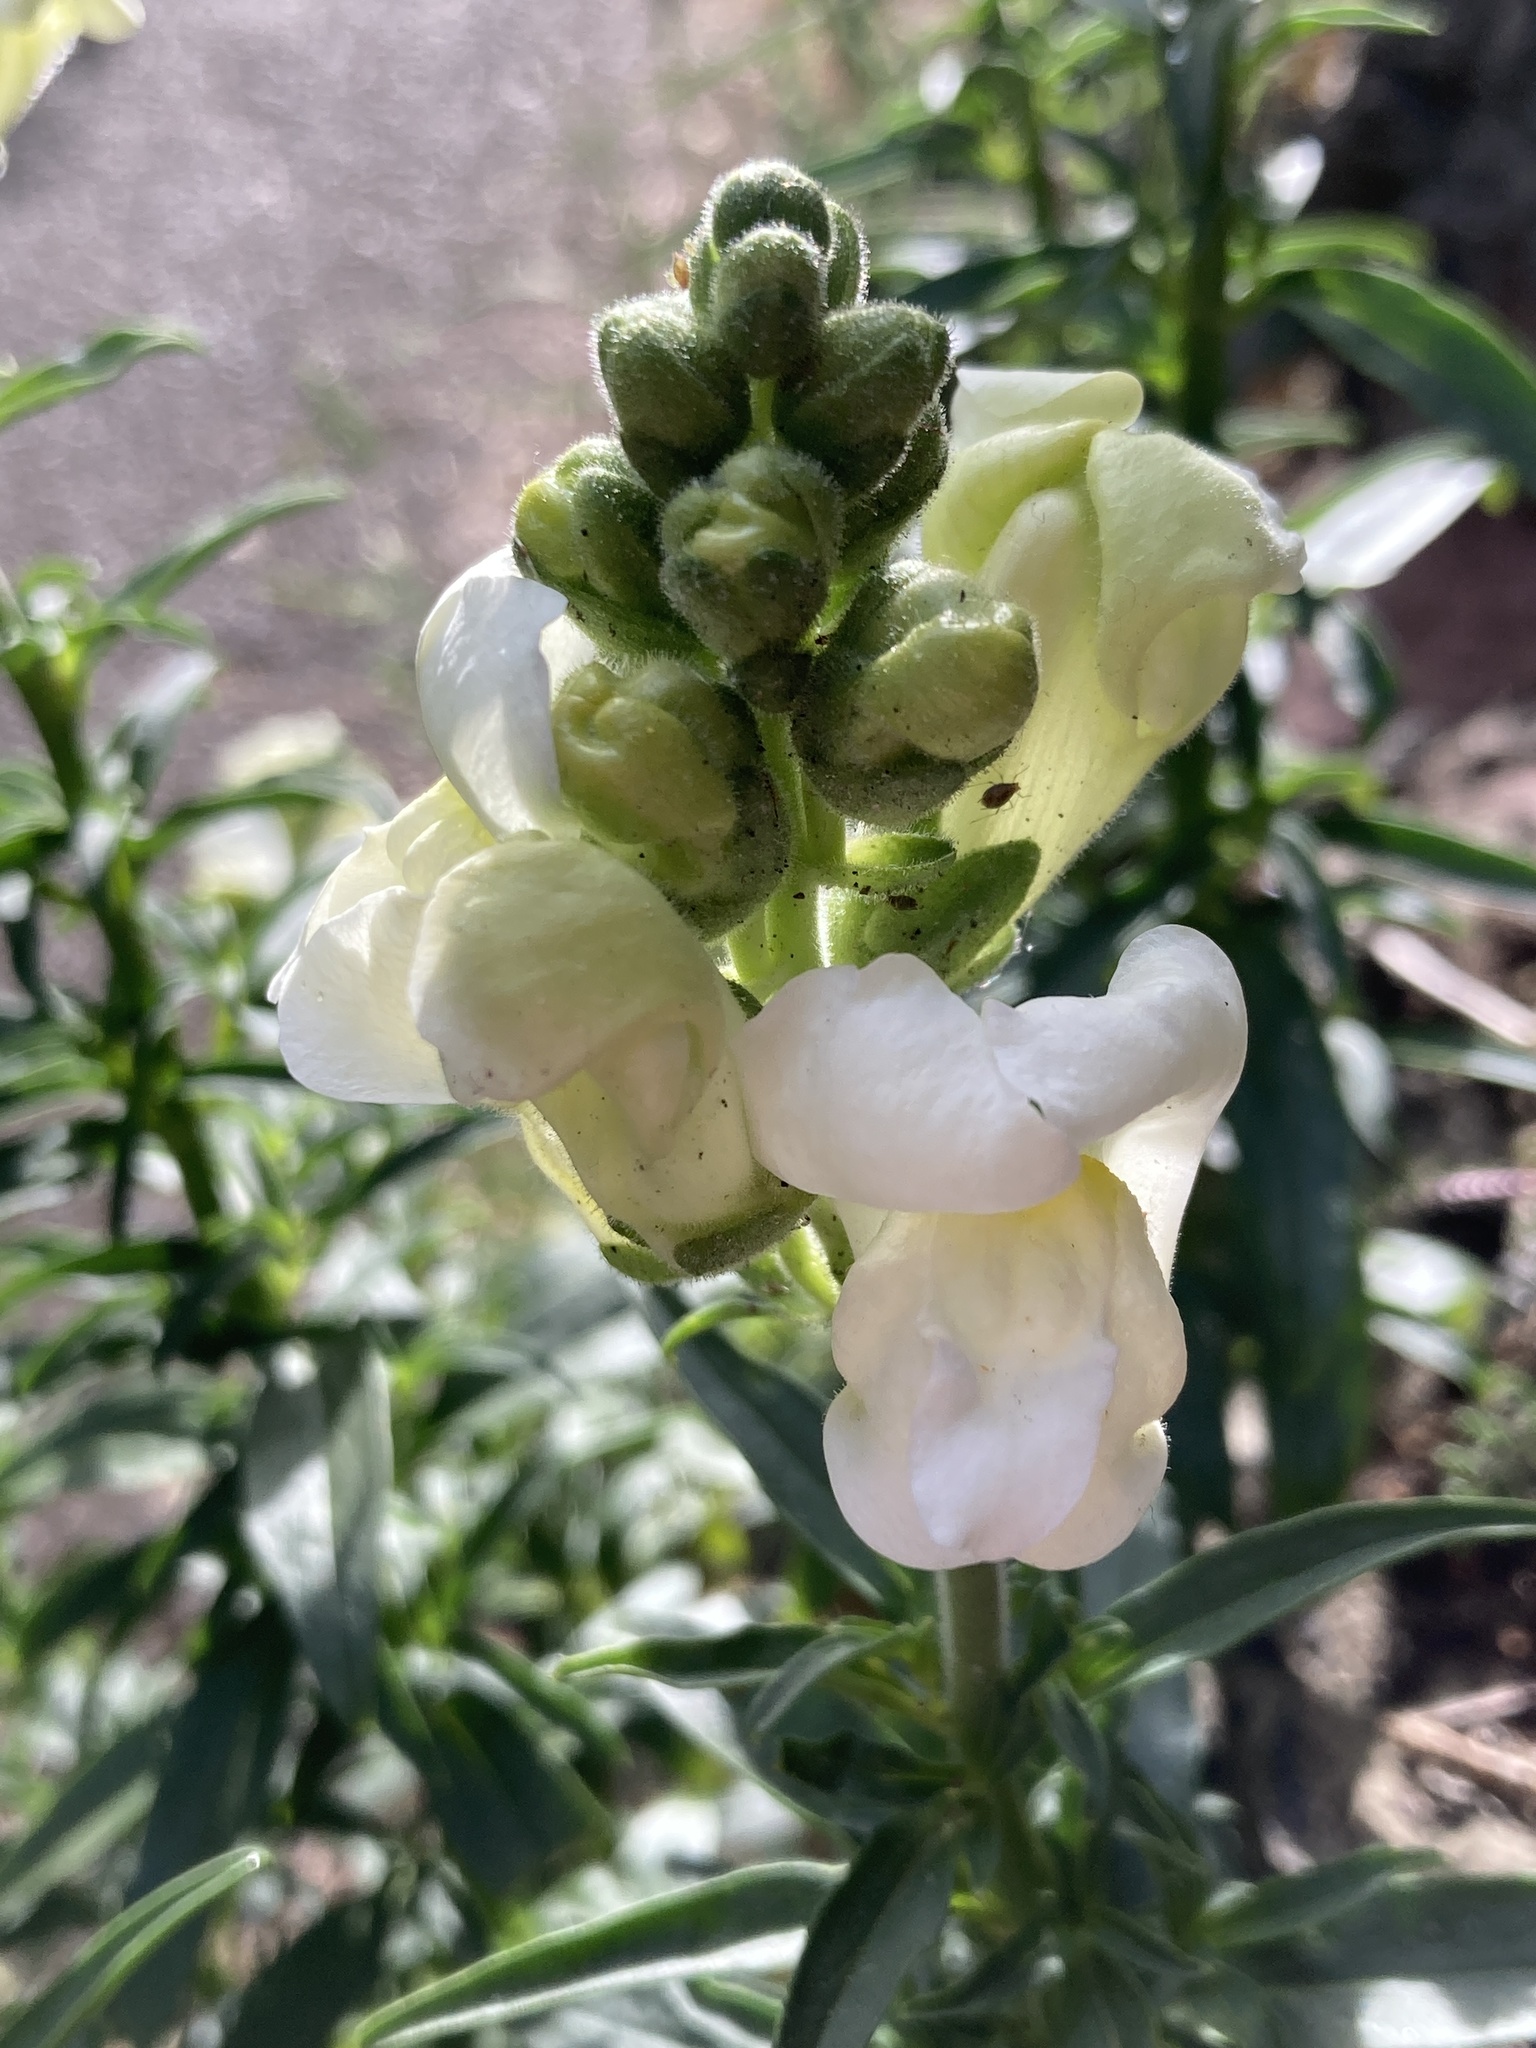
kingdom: Plantae
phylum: Tracheophyta
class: Magnoliopsida
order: Lamiales
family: Plantaginaceae
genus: Antirrhinum
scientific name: Antirrhinum majus
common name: Snapdragon
